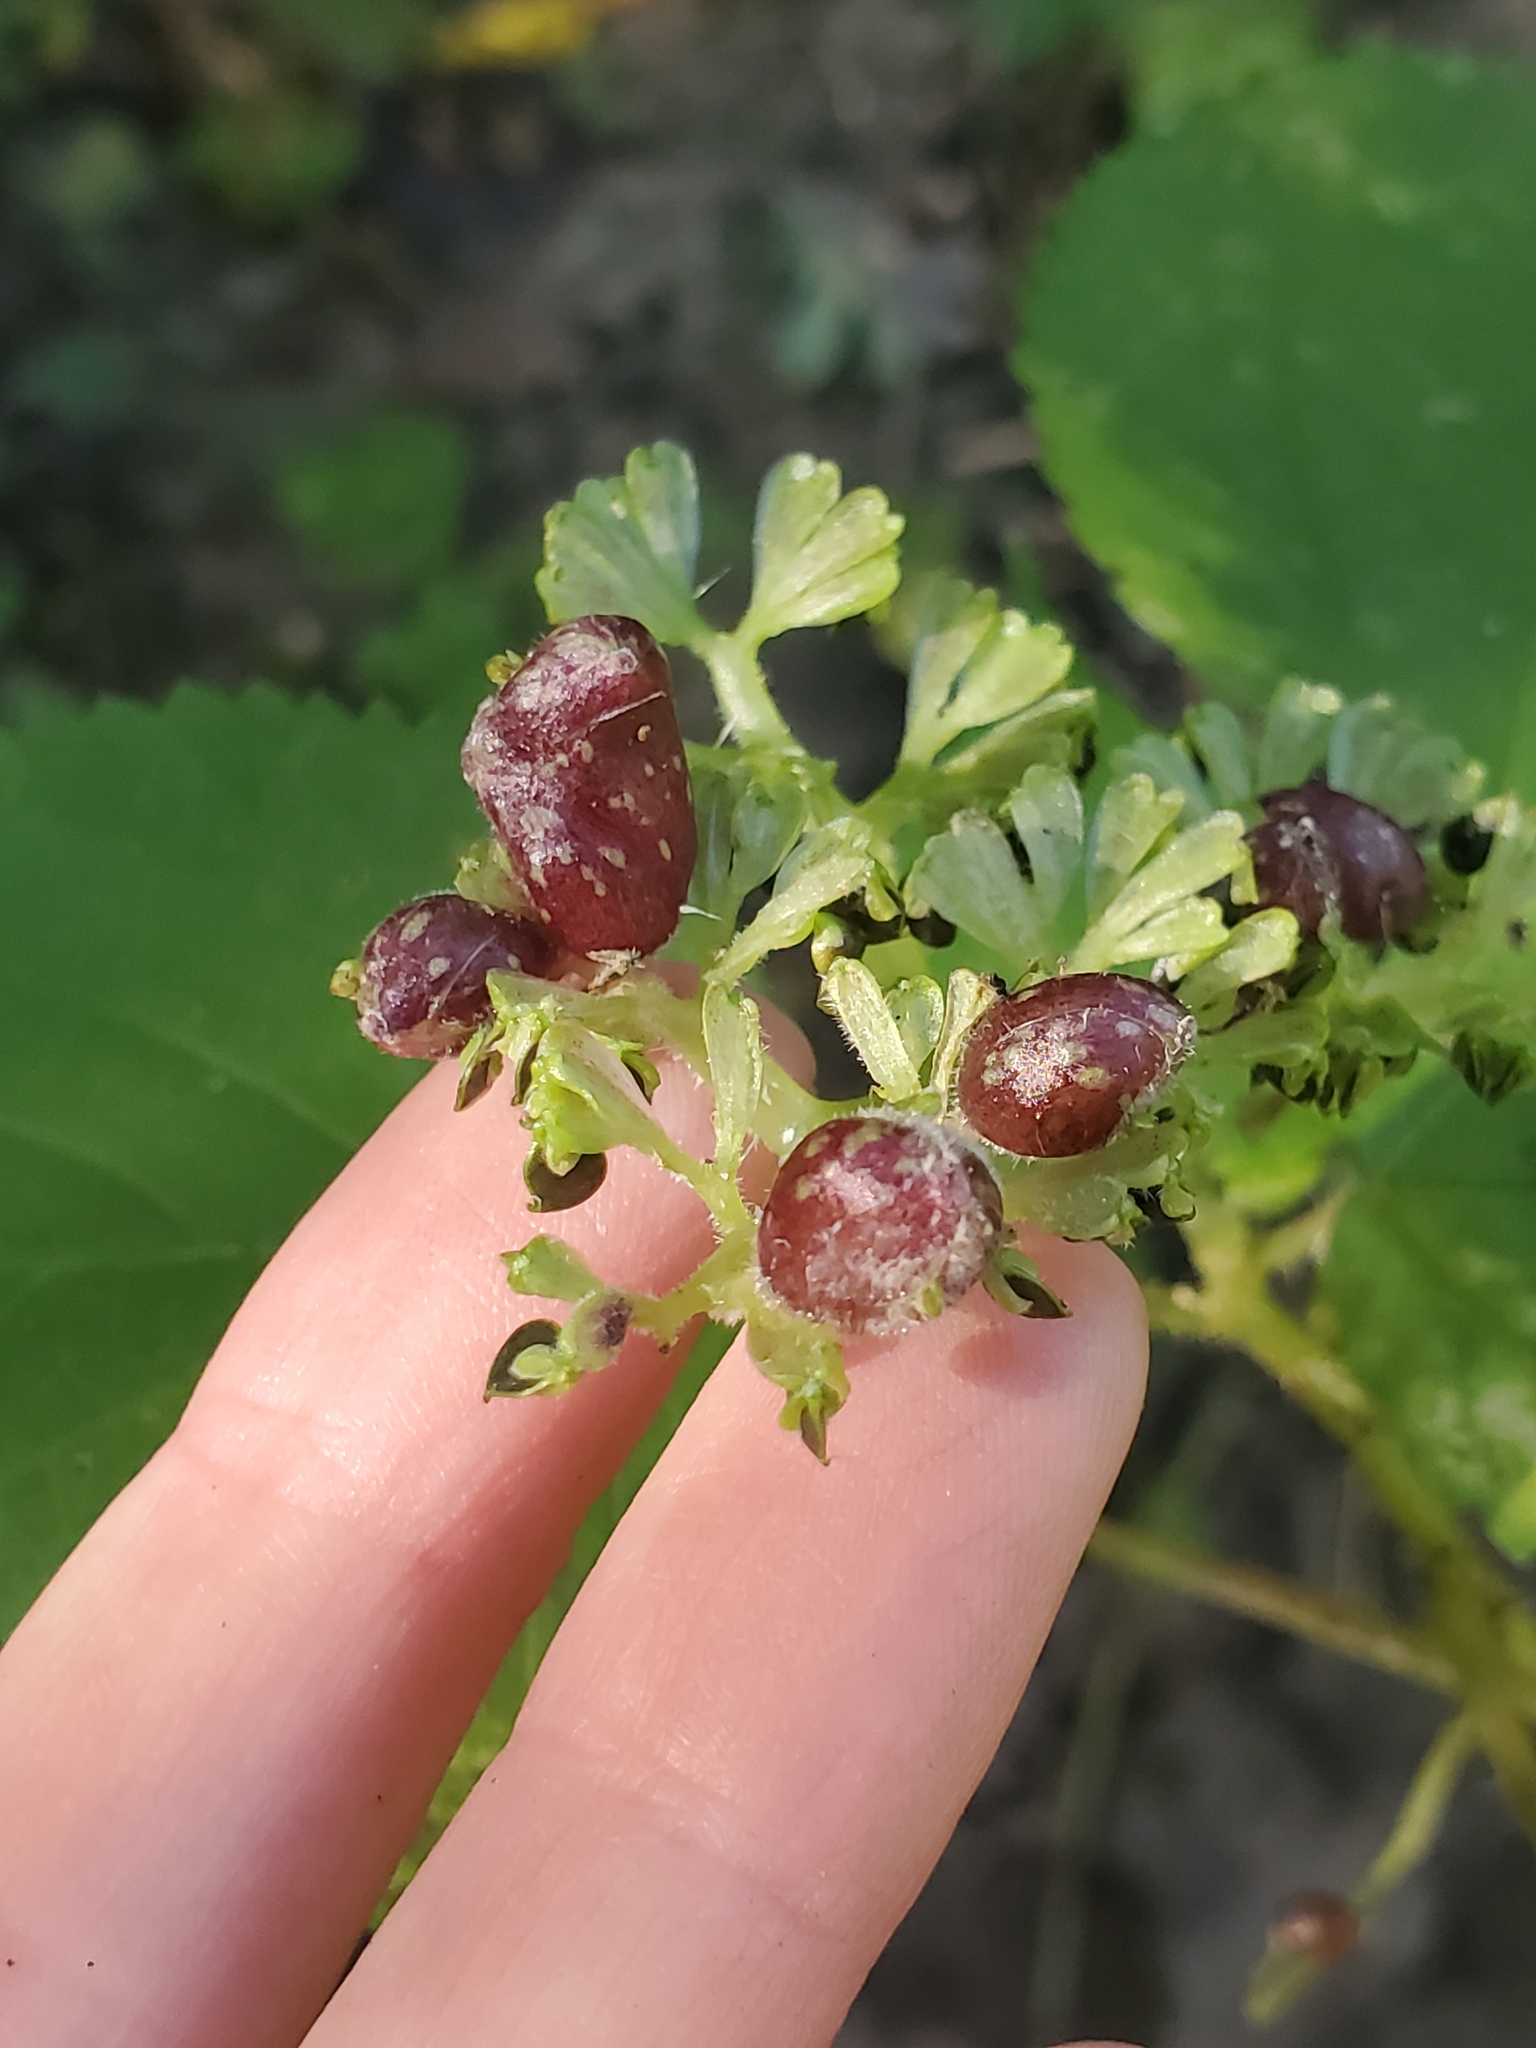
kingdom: Animalia
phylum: Arthropoda
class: Insecta
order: Diptera
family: Cecidomyiidae
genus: Dasineura
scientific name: Dasineura investita
